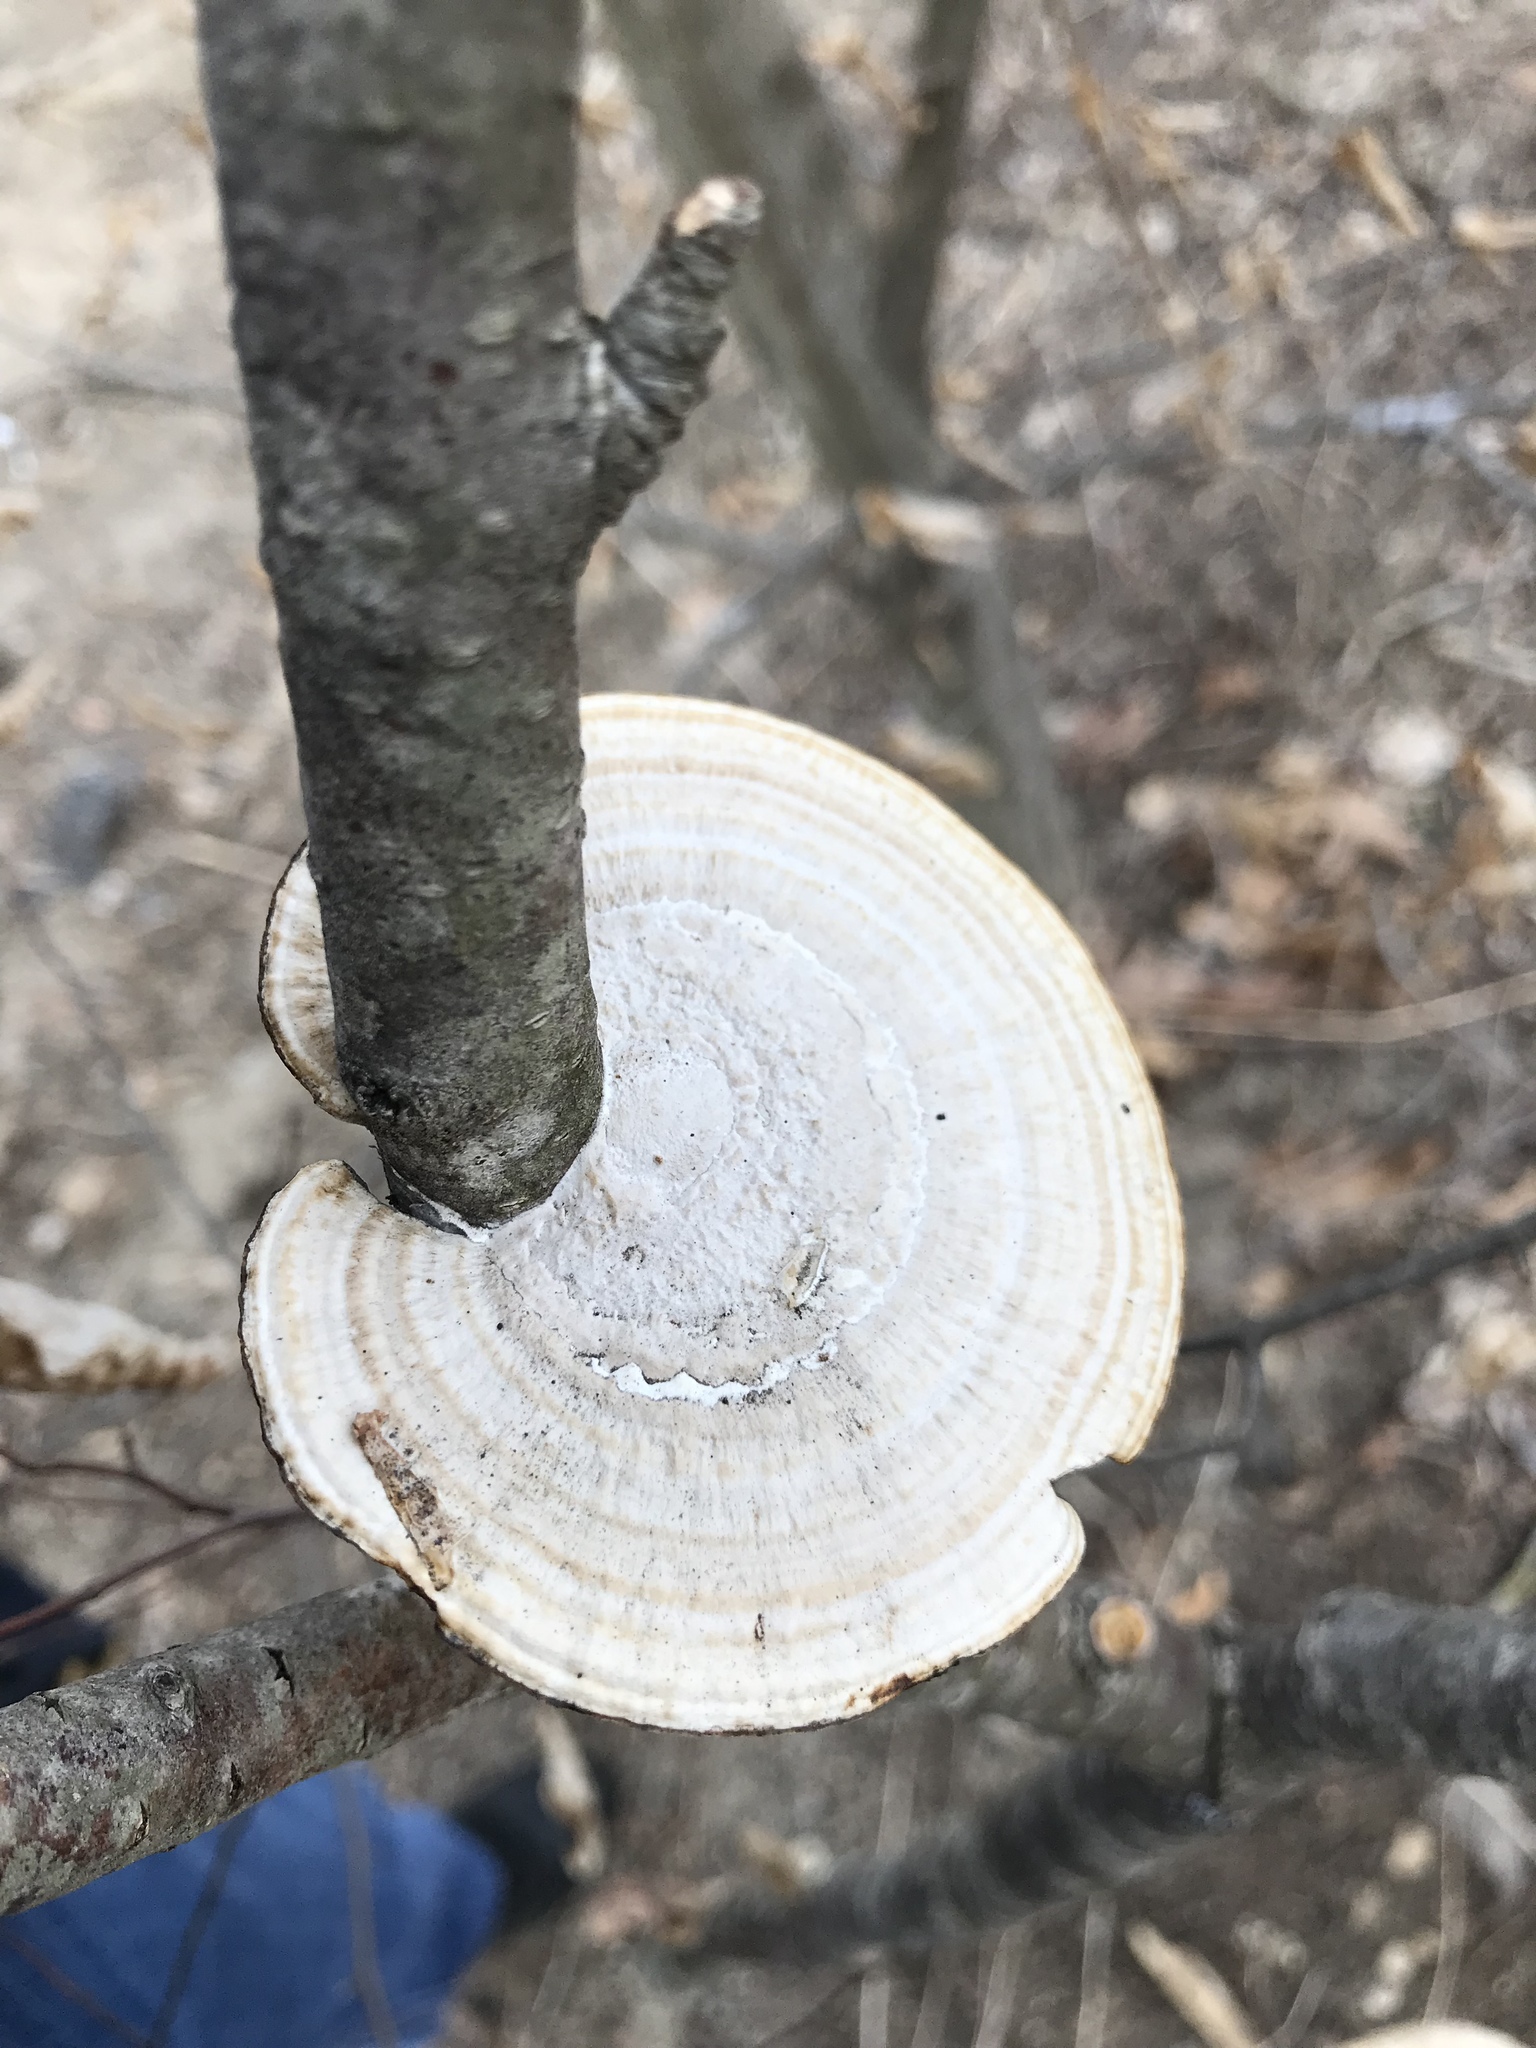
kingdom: Fungi
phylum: Basidiomycota
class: Agaricomycetes
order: Polyporales
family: Polyporaceae
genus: Daedaleopsis
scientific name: Daedaleopsis confragosa
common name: Blushing bracket
